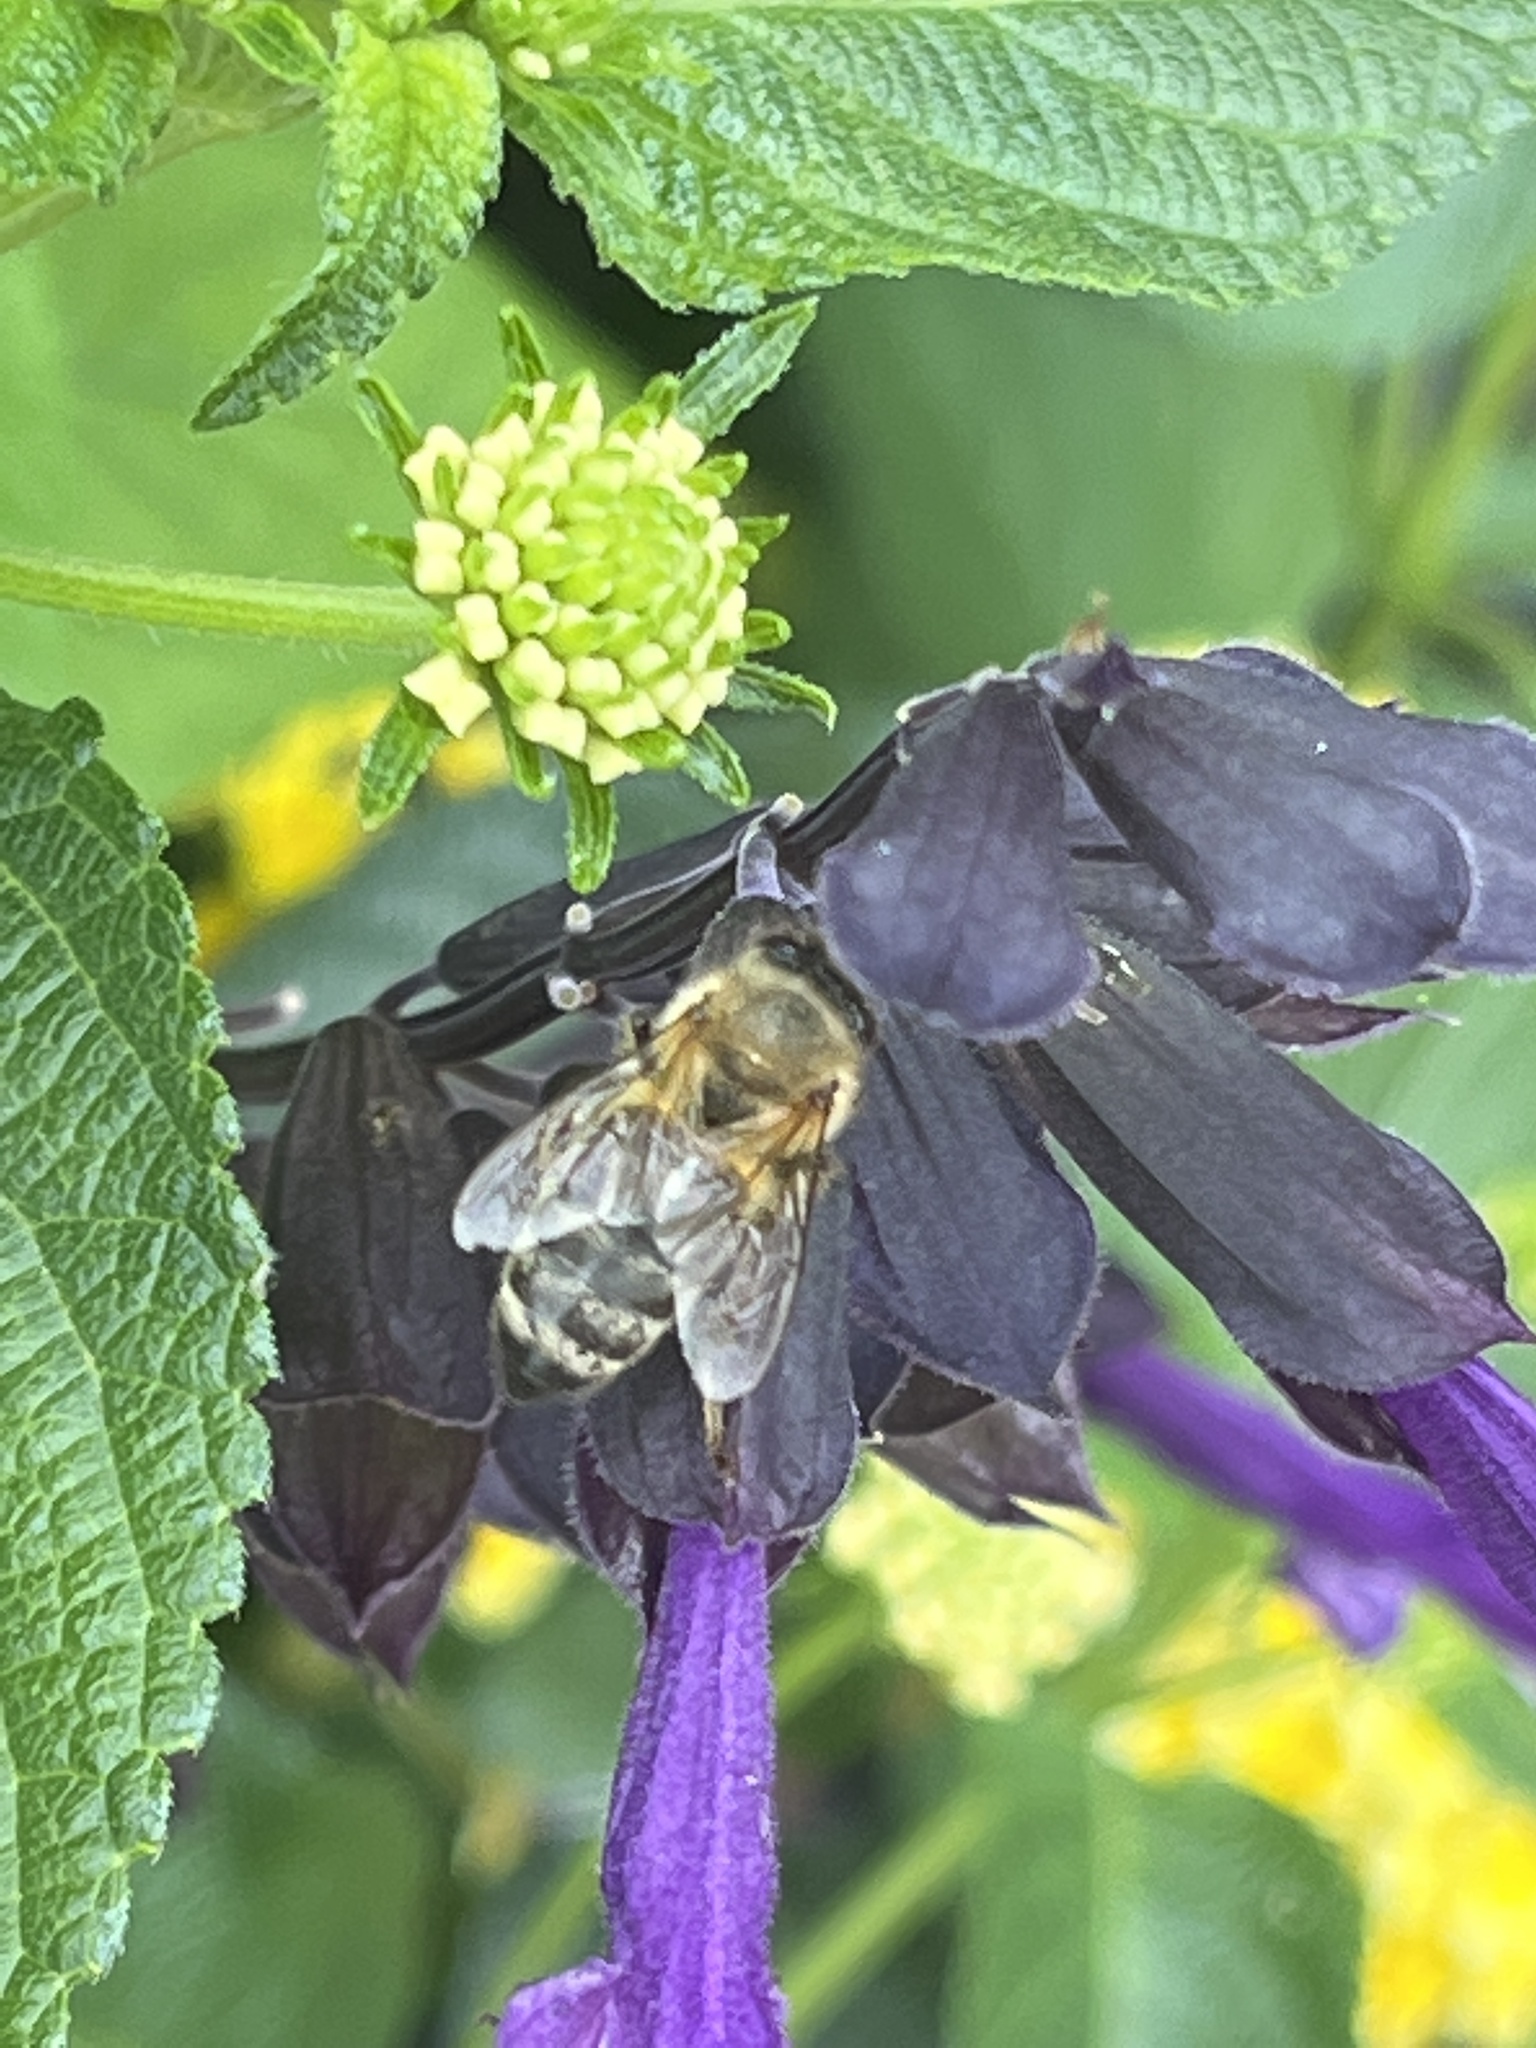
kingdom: Animalia
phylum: Arthropoda
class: Insecta
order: Hymenoptera
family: Apidae
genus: Apis
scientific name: Apis mellifera
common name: Honey bee
